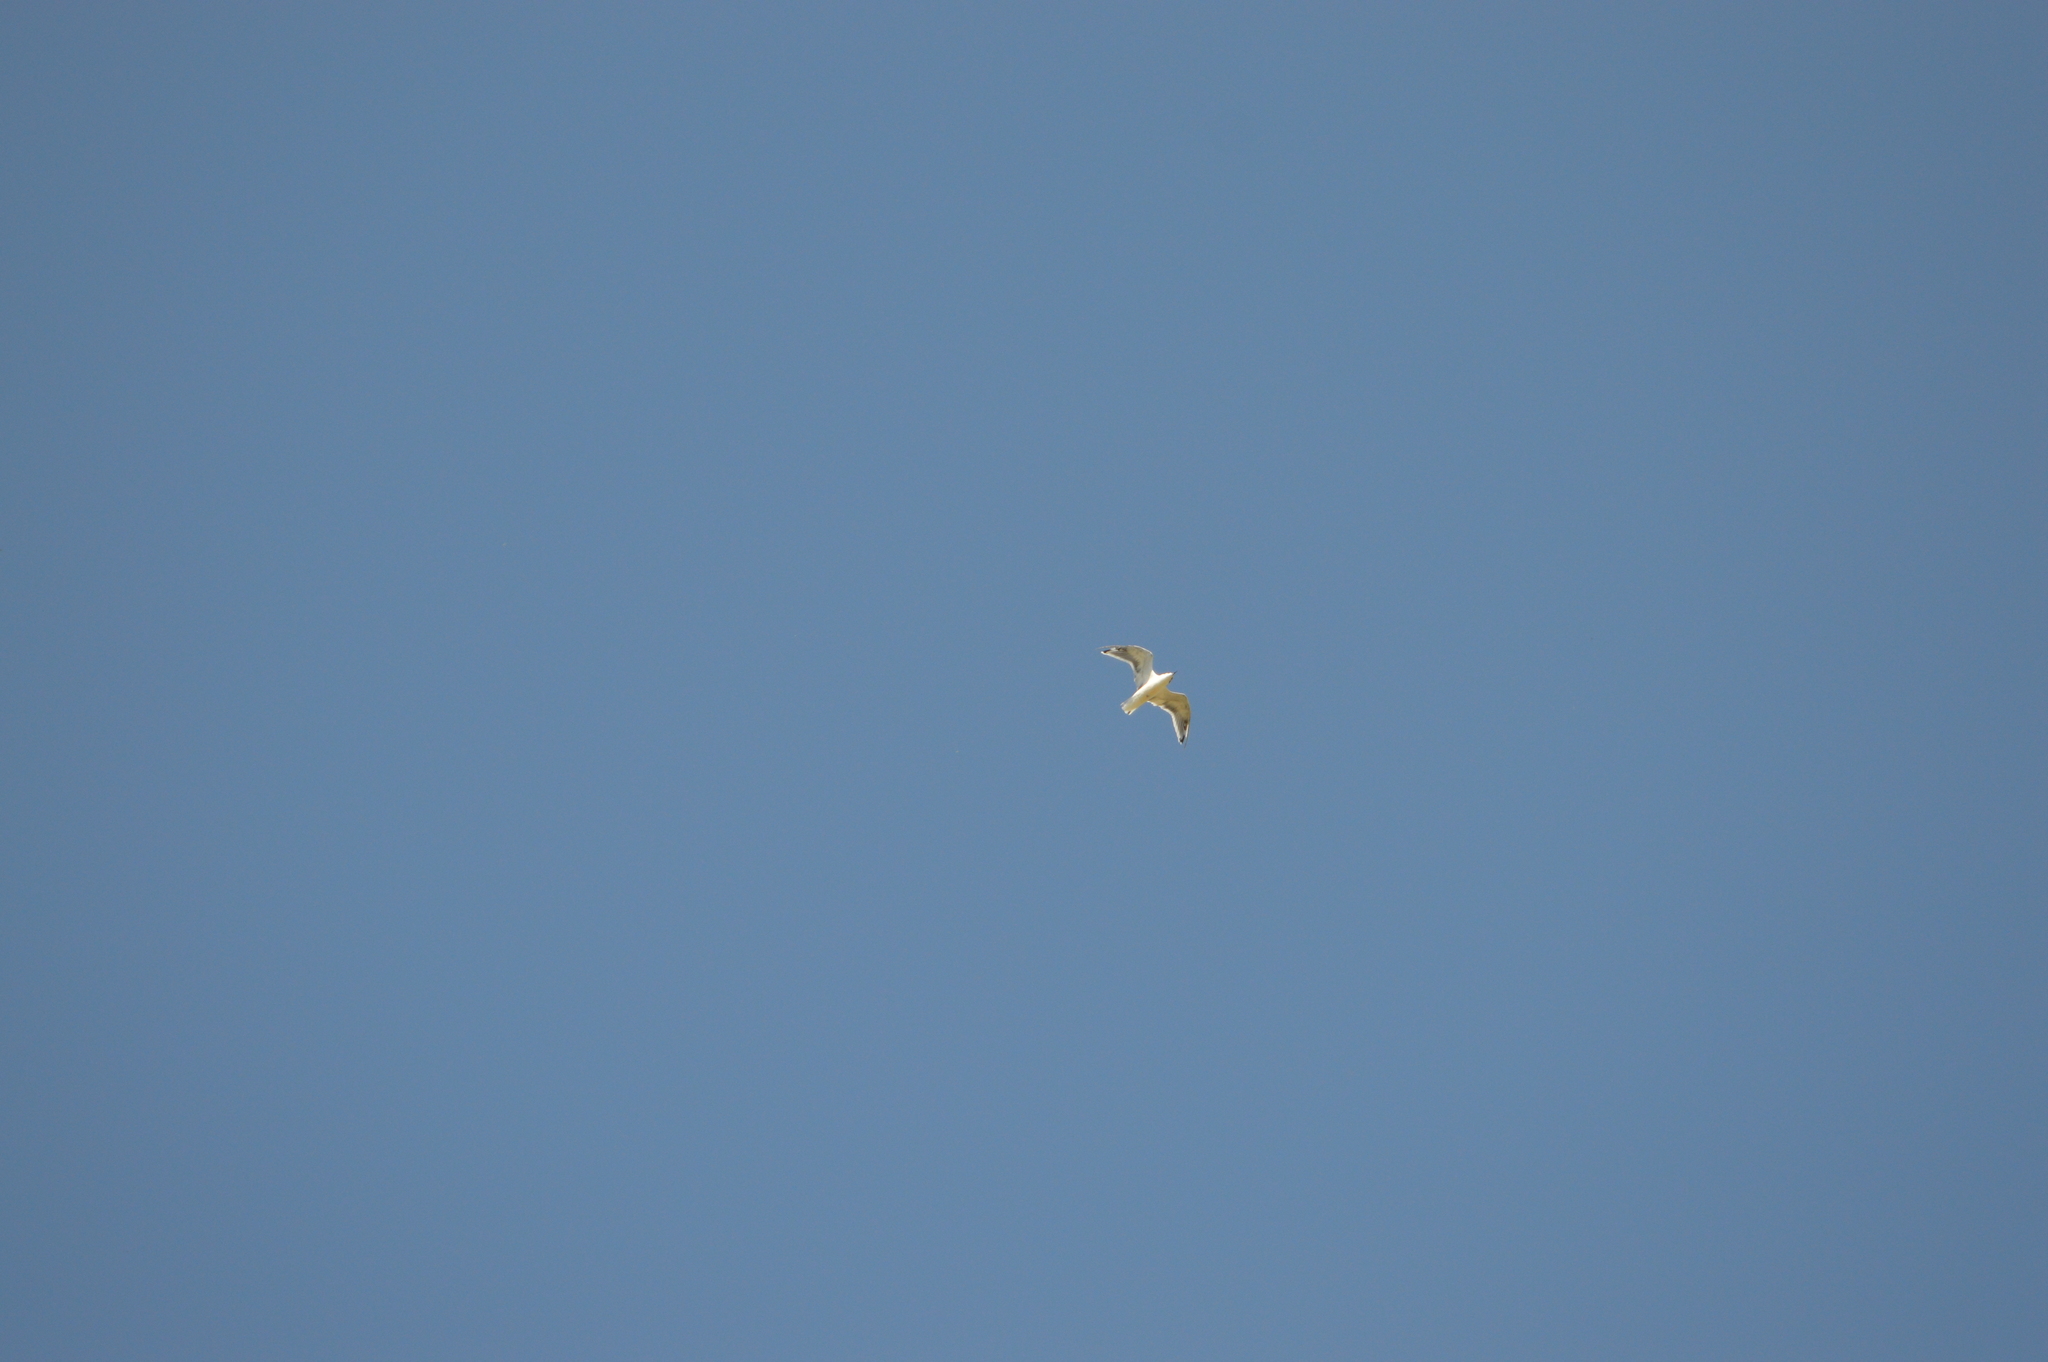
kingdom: Animalia
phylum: Chordata
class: Aves
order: Charadriiformes
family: Laridae
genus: Hydrocoloeus
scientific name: Hydrocoloeus minutus
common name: Little gull
